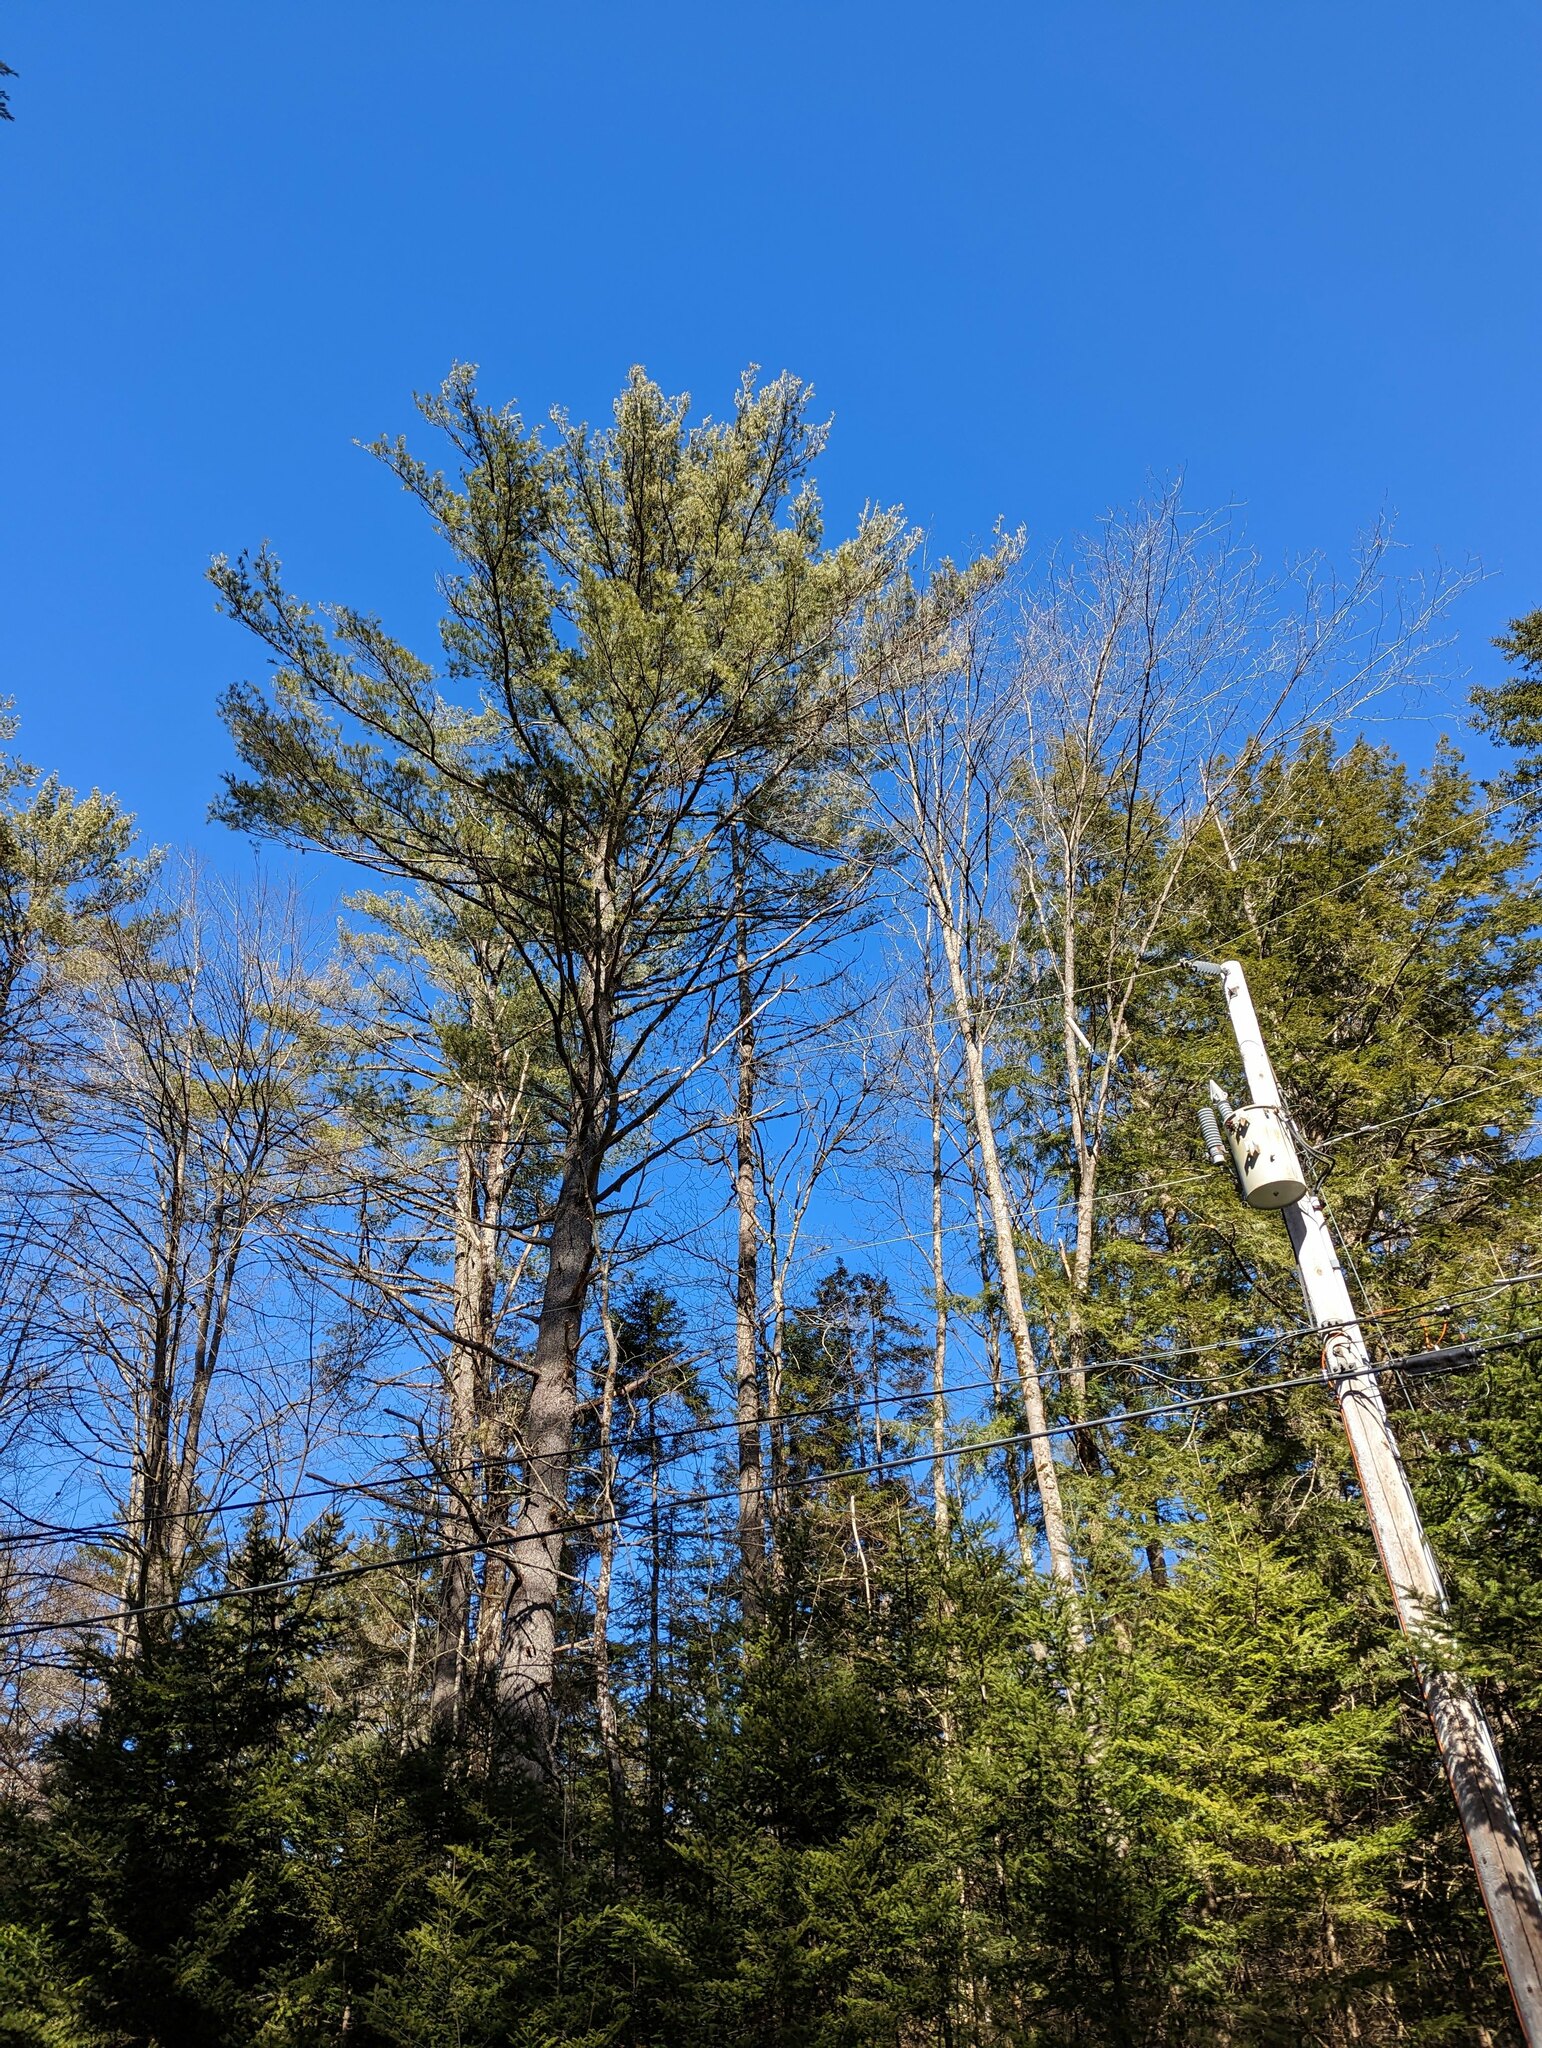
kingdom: Plantae
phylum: Tracheophyta
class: Pinopsida
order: Pinales
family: Pinaceae
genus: Pinus
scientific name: Pinus strobus
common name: Weymouth pine
